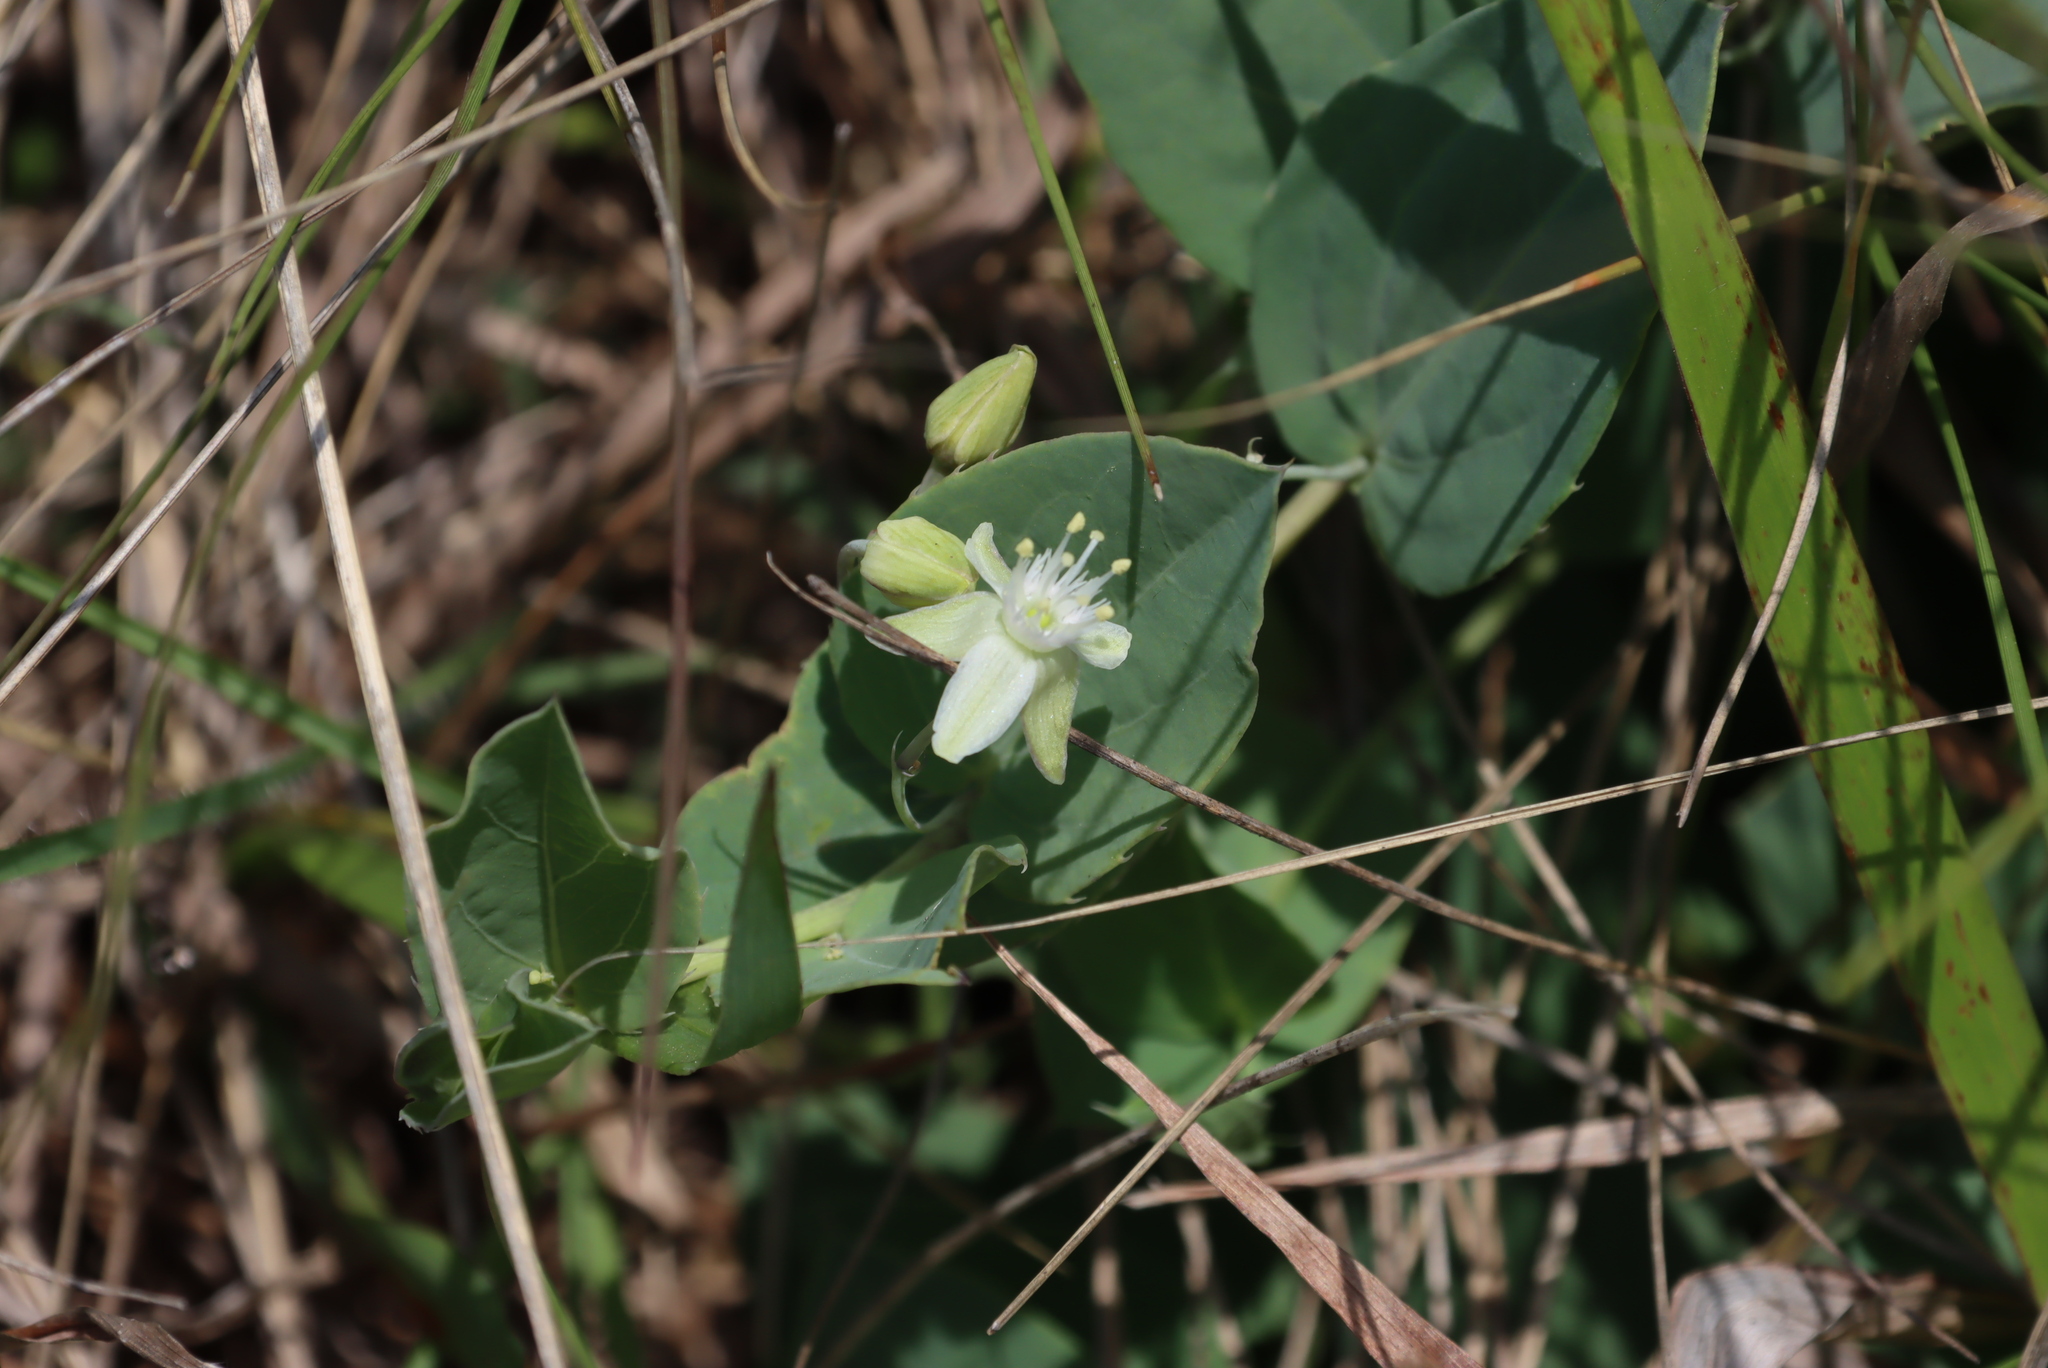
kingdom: Plantae
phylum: Tracheophyta
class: Magnoliopsida
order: Malpighiales
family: Passifloraceae
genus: Basananthe
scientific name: Basananthe sandersonii
